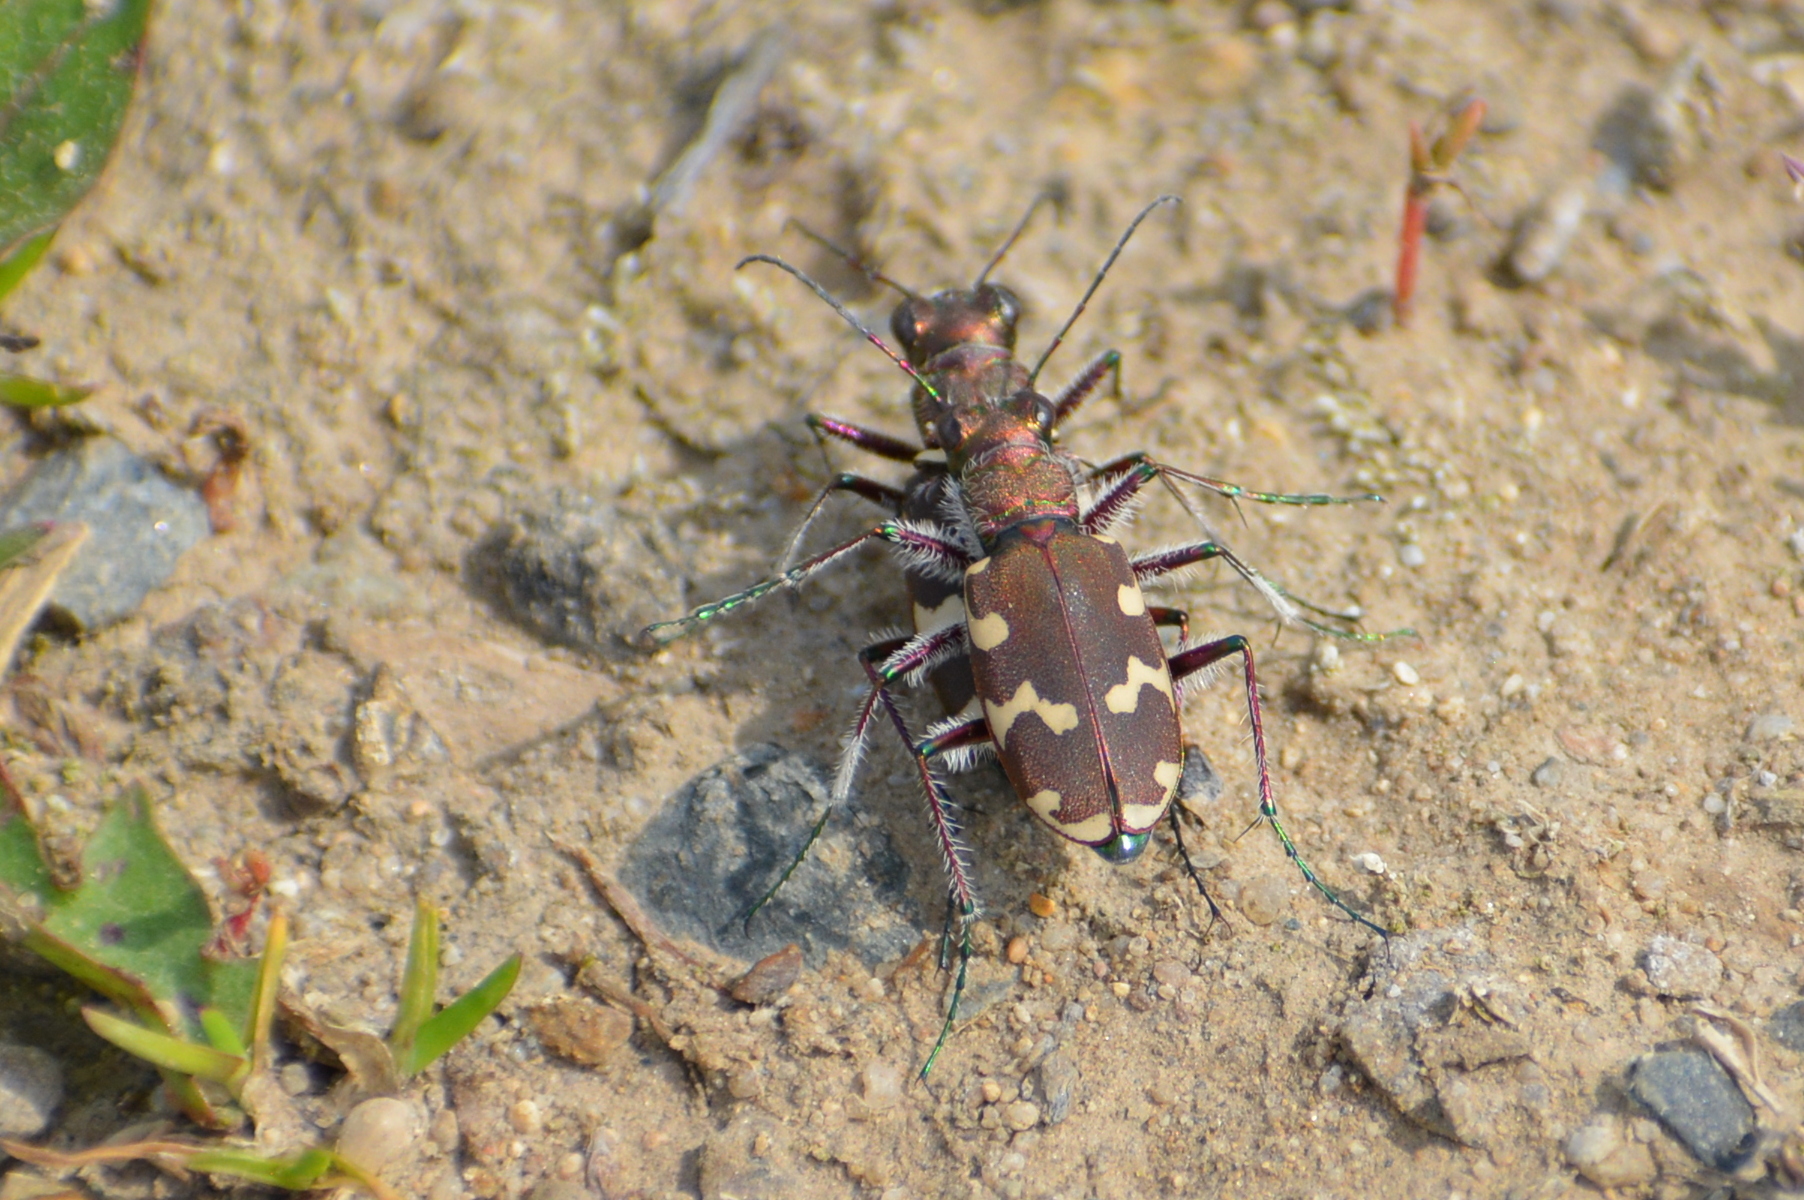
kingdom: Animalia
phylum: Arthropoda
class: Insecta
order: Coleoptera
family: Carabidae
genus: Cicindela
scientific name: Cicindela hybrida
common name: Northern dune tiger beetle
